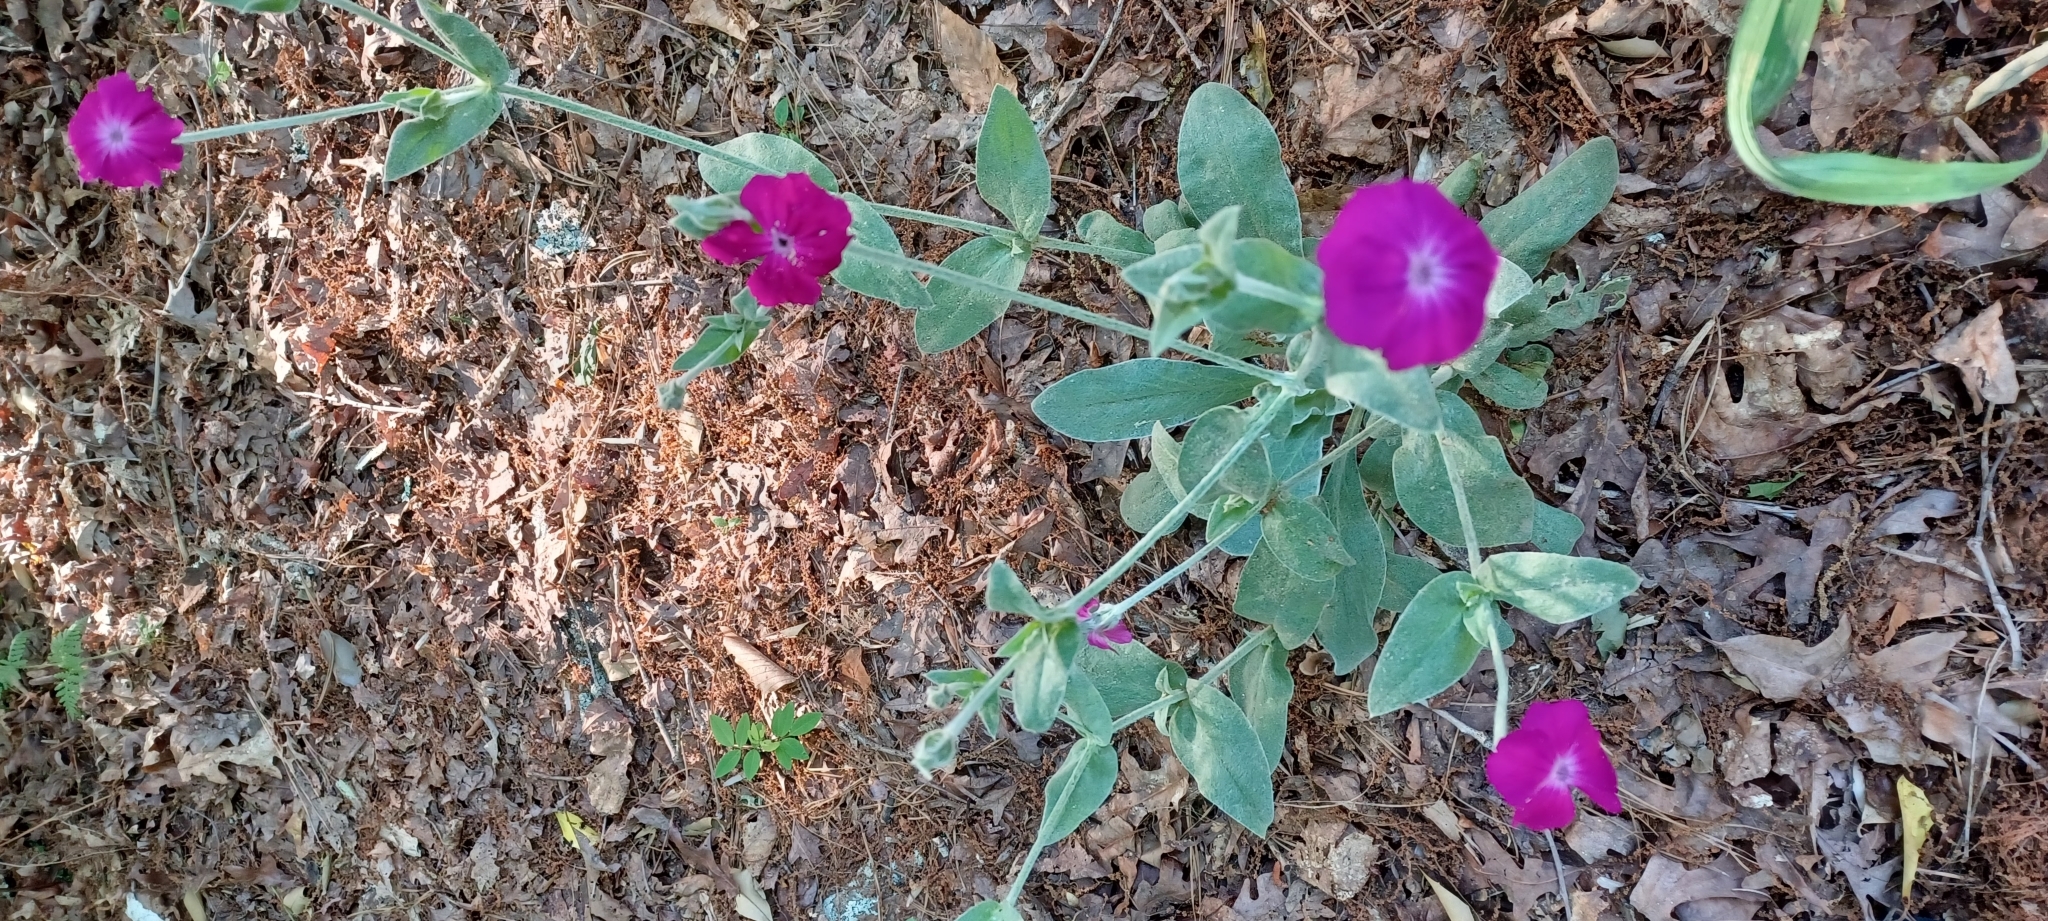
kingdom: Plantae
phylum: Tracheophyta
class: Magnoliopsida
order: Caryophyllales
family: Caryophyllaceae
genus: Silene
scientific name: Silene coronaria
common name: Rose campion
